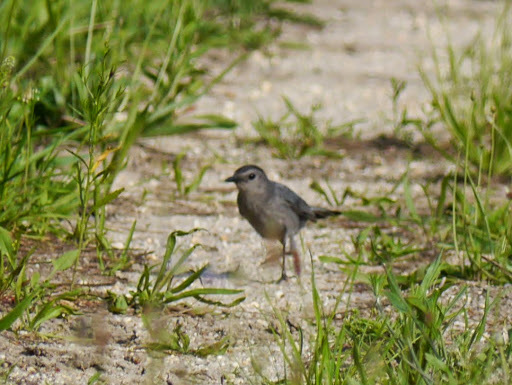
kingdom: Animalia
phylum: Chordata
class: Aves
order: Passeriformes
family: Mimidae
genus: Dumetella
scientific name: Dumetella carolinensis
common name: Gray catbird
